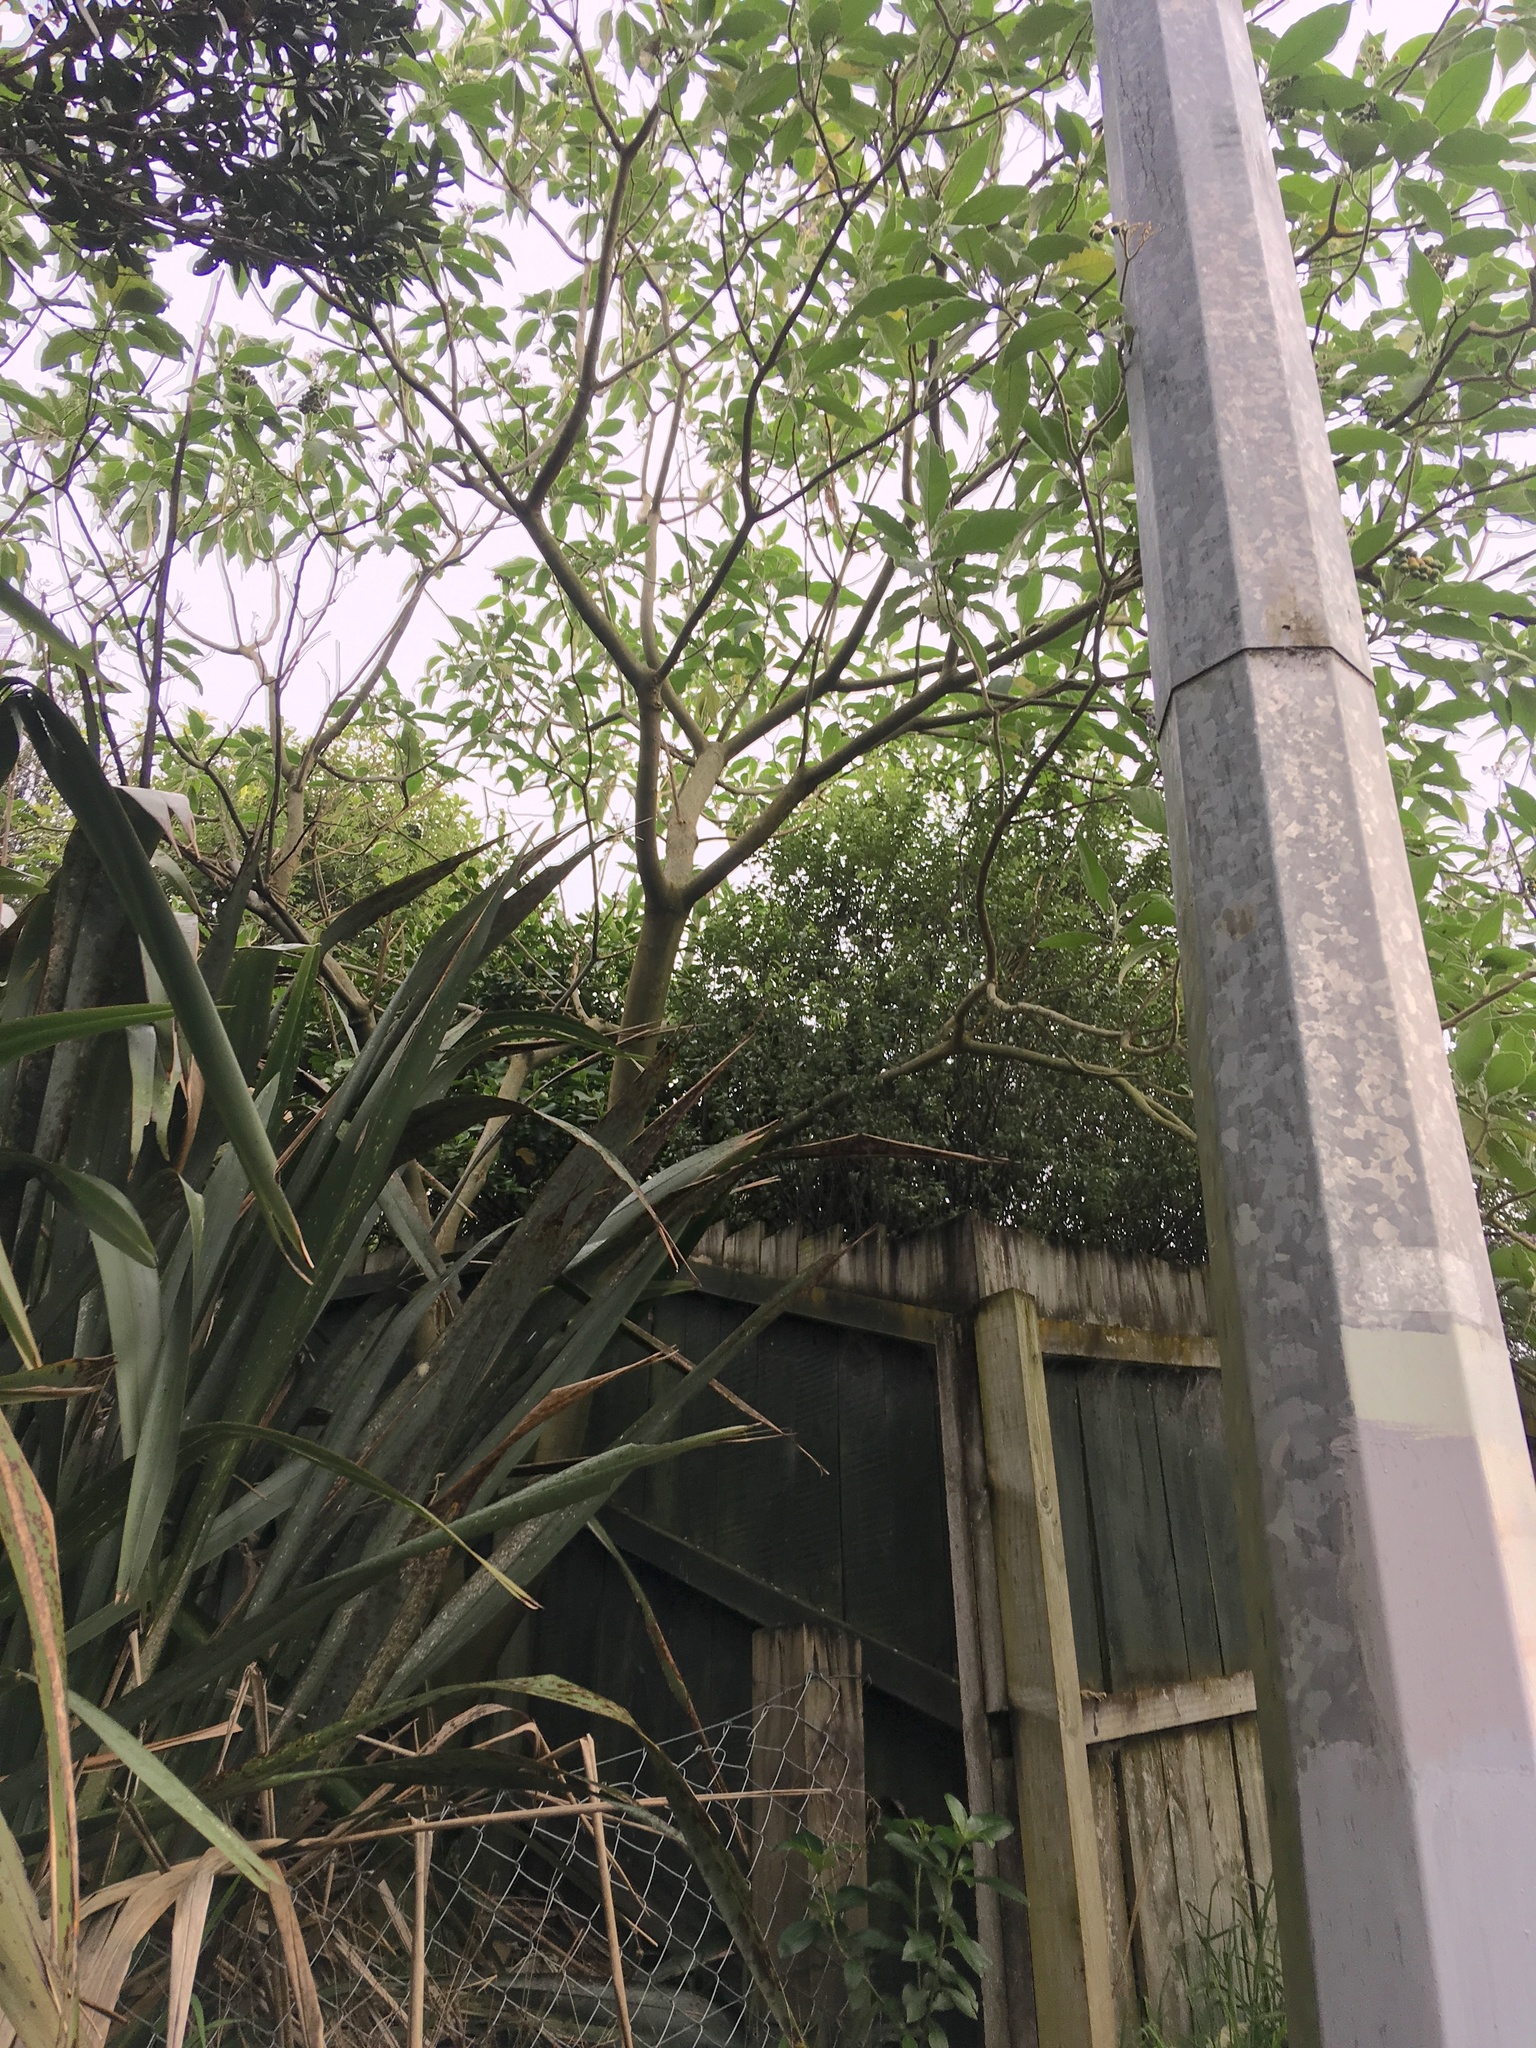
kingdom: Plantae
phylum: Tracheophyta
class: Magnoliopsida
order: Solanales
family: Solanaceae
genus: Solanum
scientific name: Solanum mauritianum
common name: Earleaf nightshade
